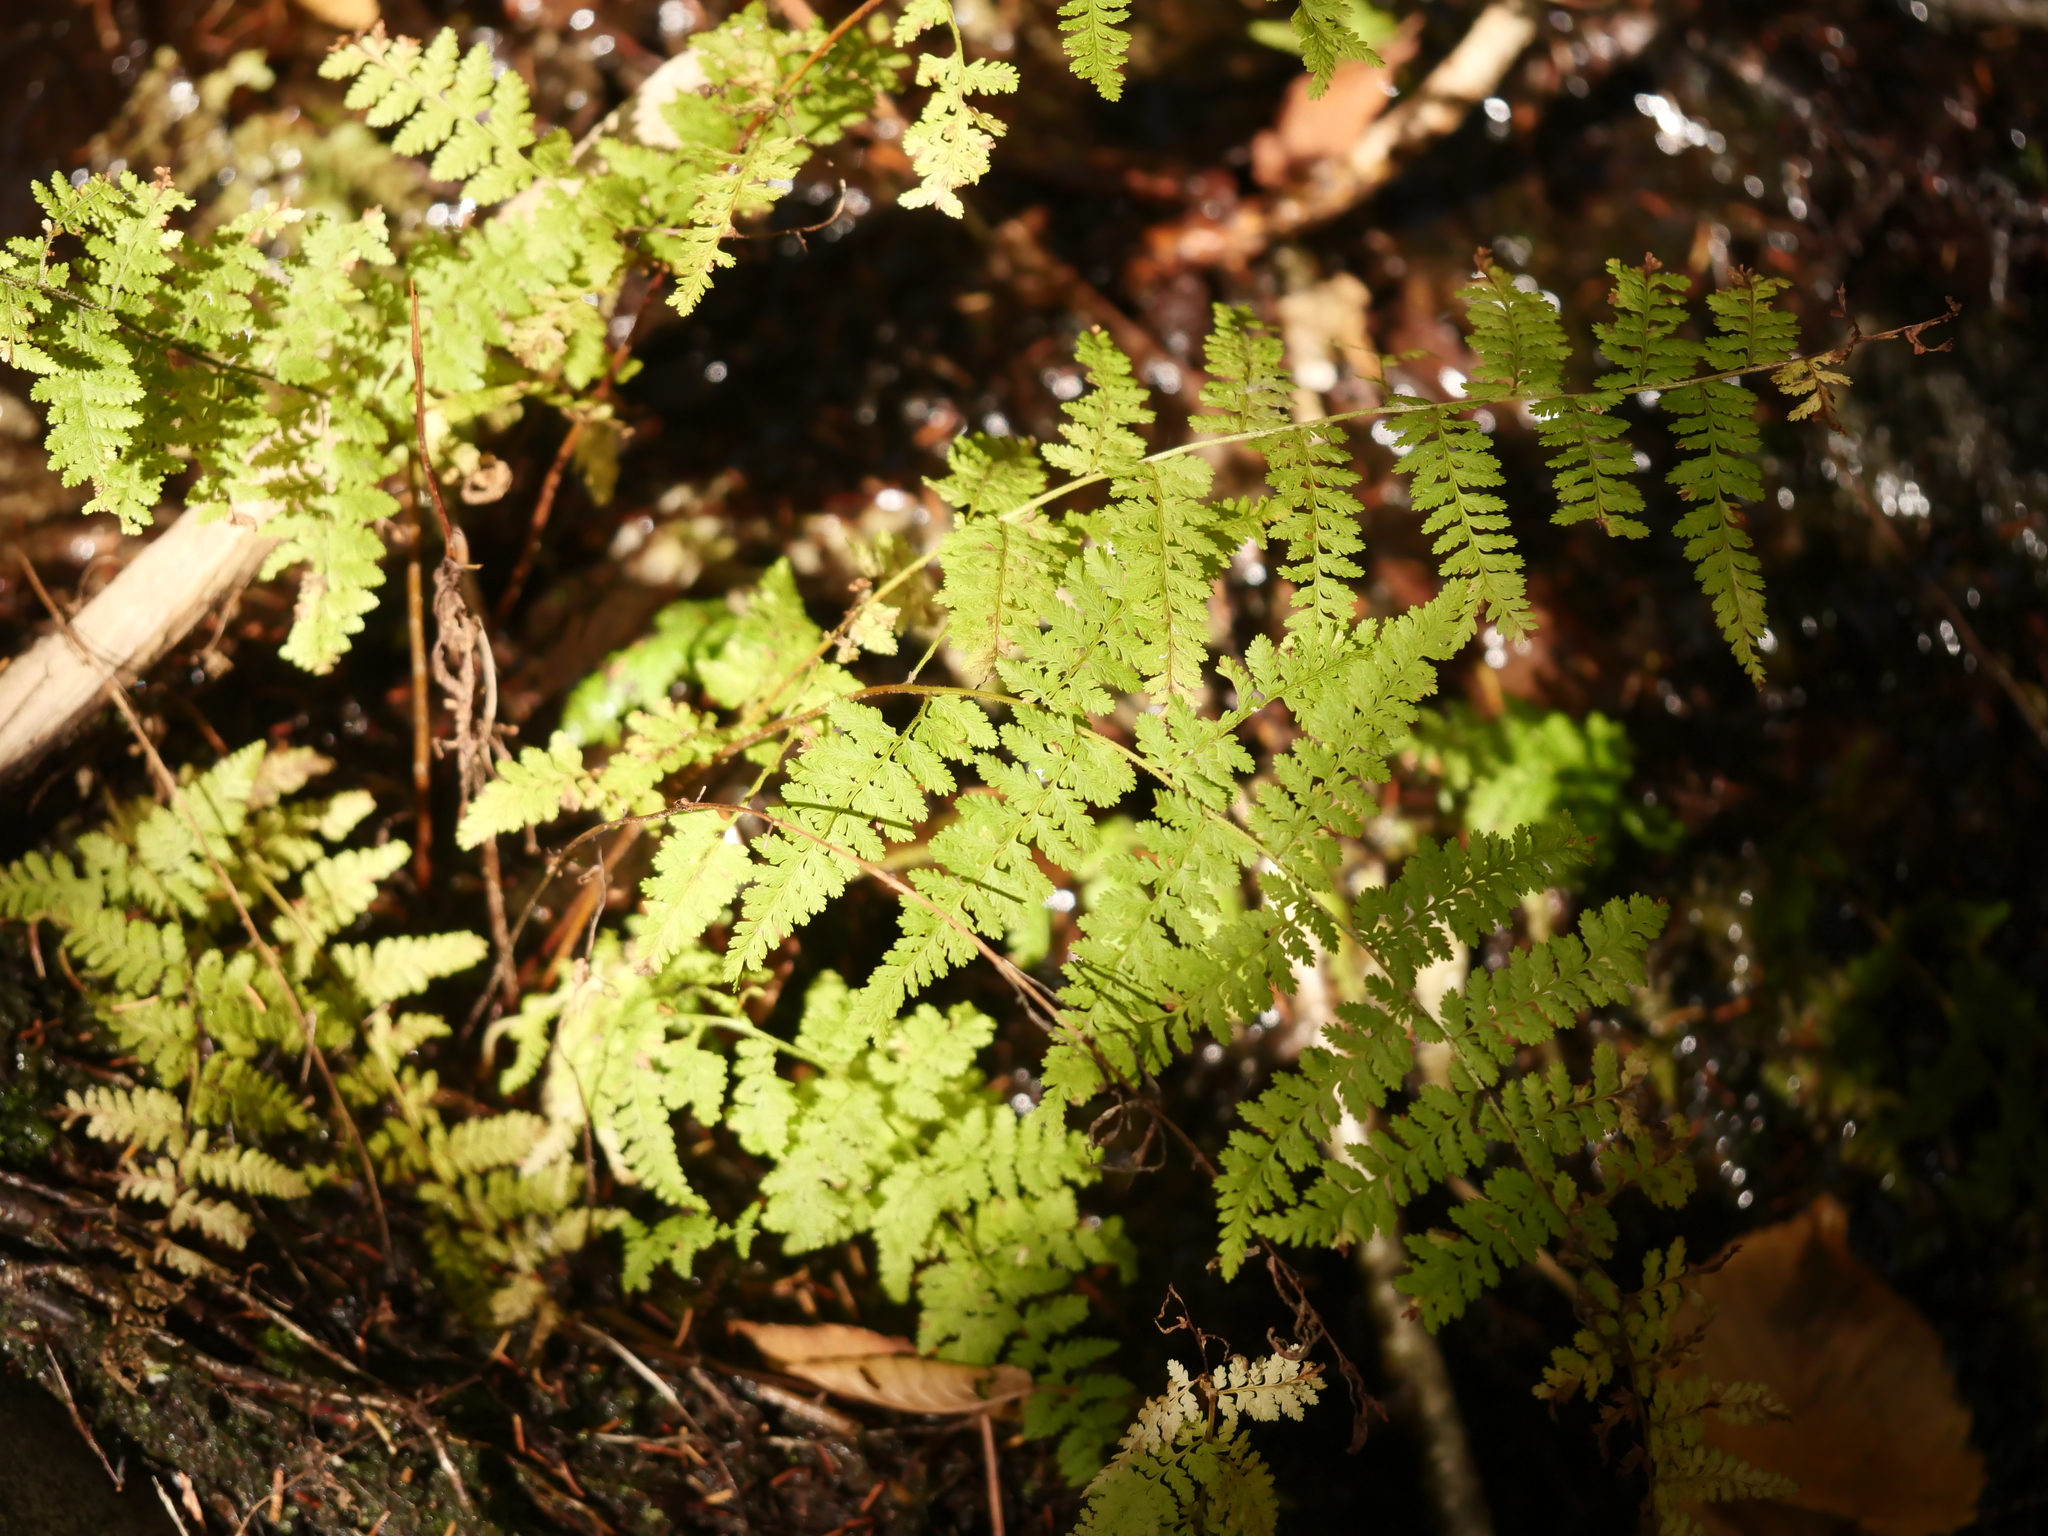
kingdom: Plantae
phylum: Tracheophyta
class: Polypodiopsida
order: Polypodiales
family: Dennstaedtiaceae
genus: Sitobolium
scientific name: Sitobolium punctilobum
